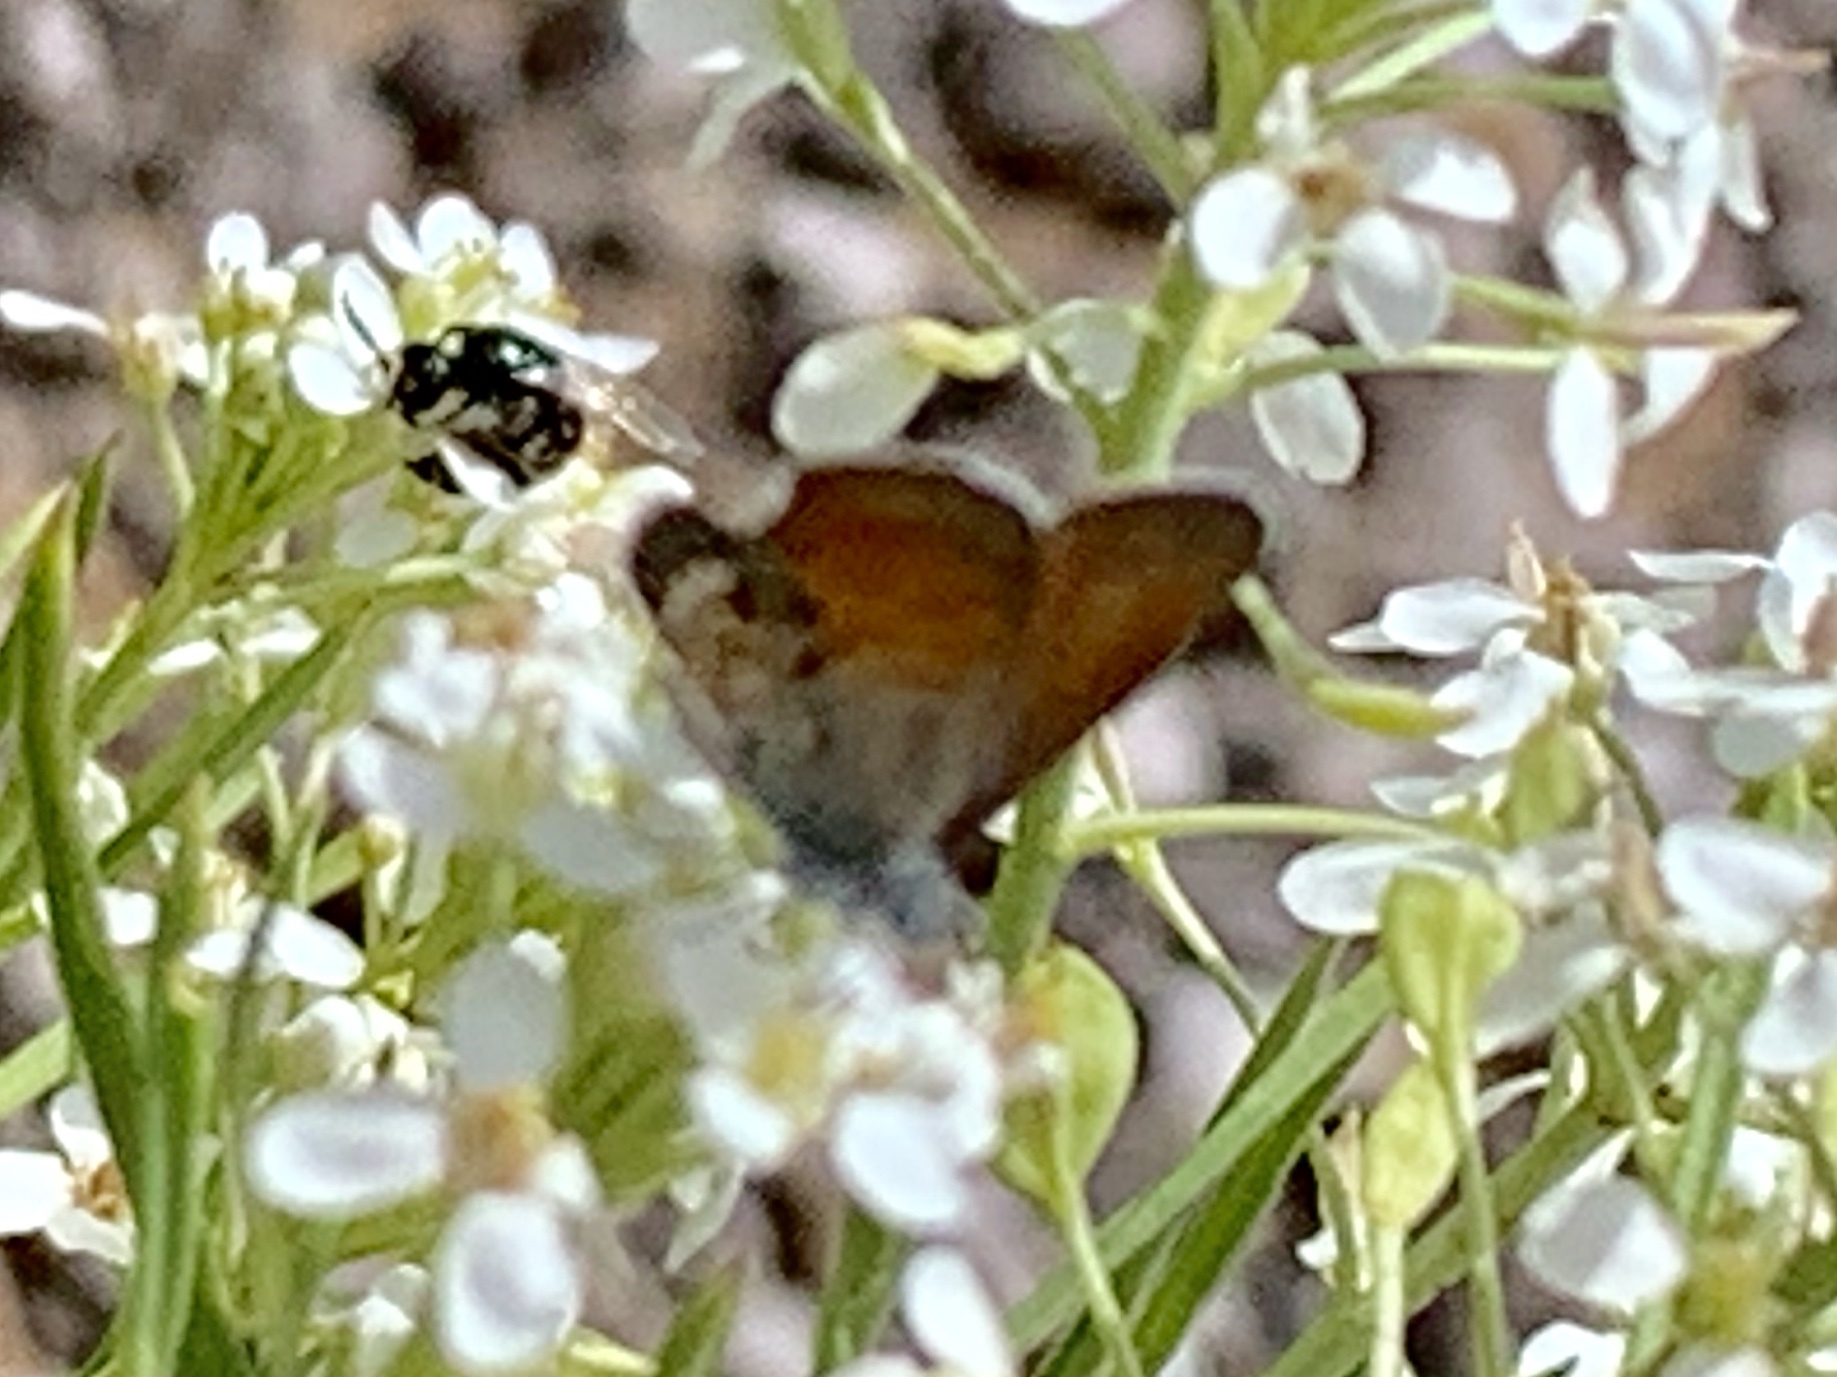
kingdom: Animalia
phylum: Arthropoda
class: Insecta
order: Lepidoptera
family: Lycaenidae
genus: Brephidium
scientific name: Brephidium exilis
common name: Pygmy blue
